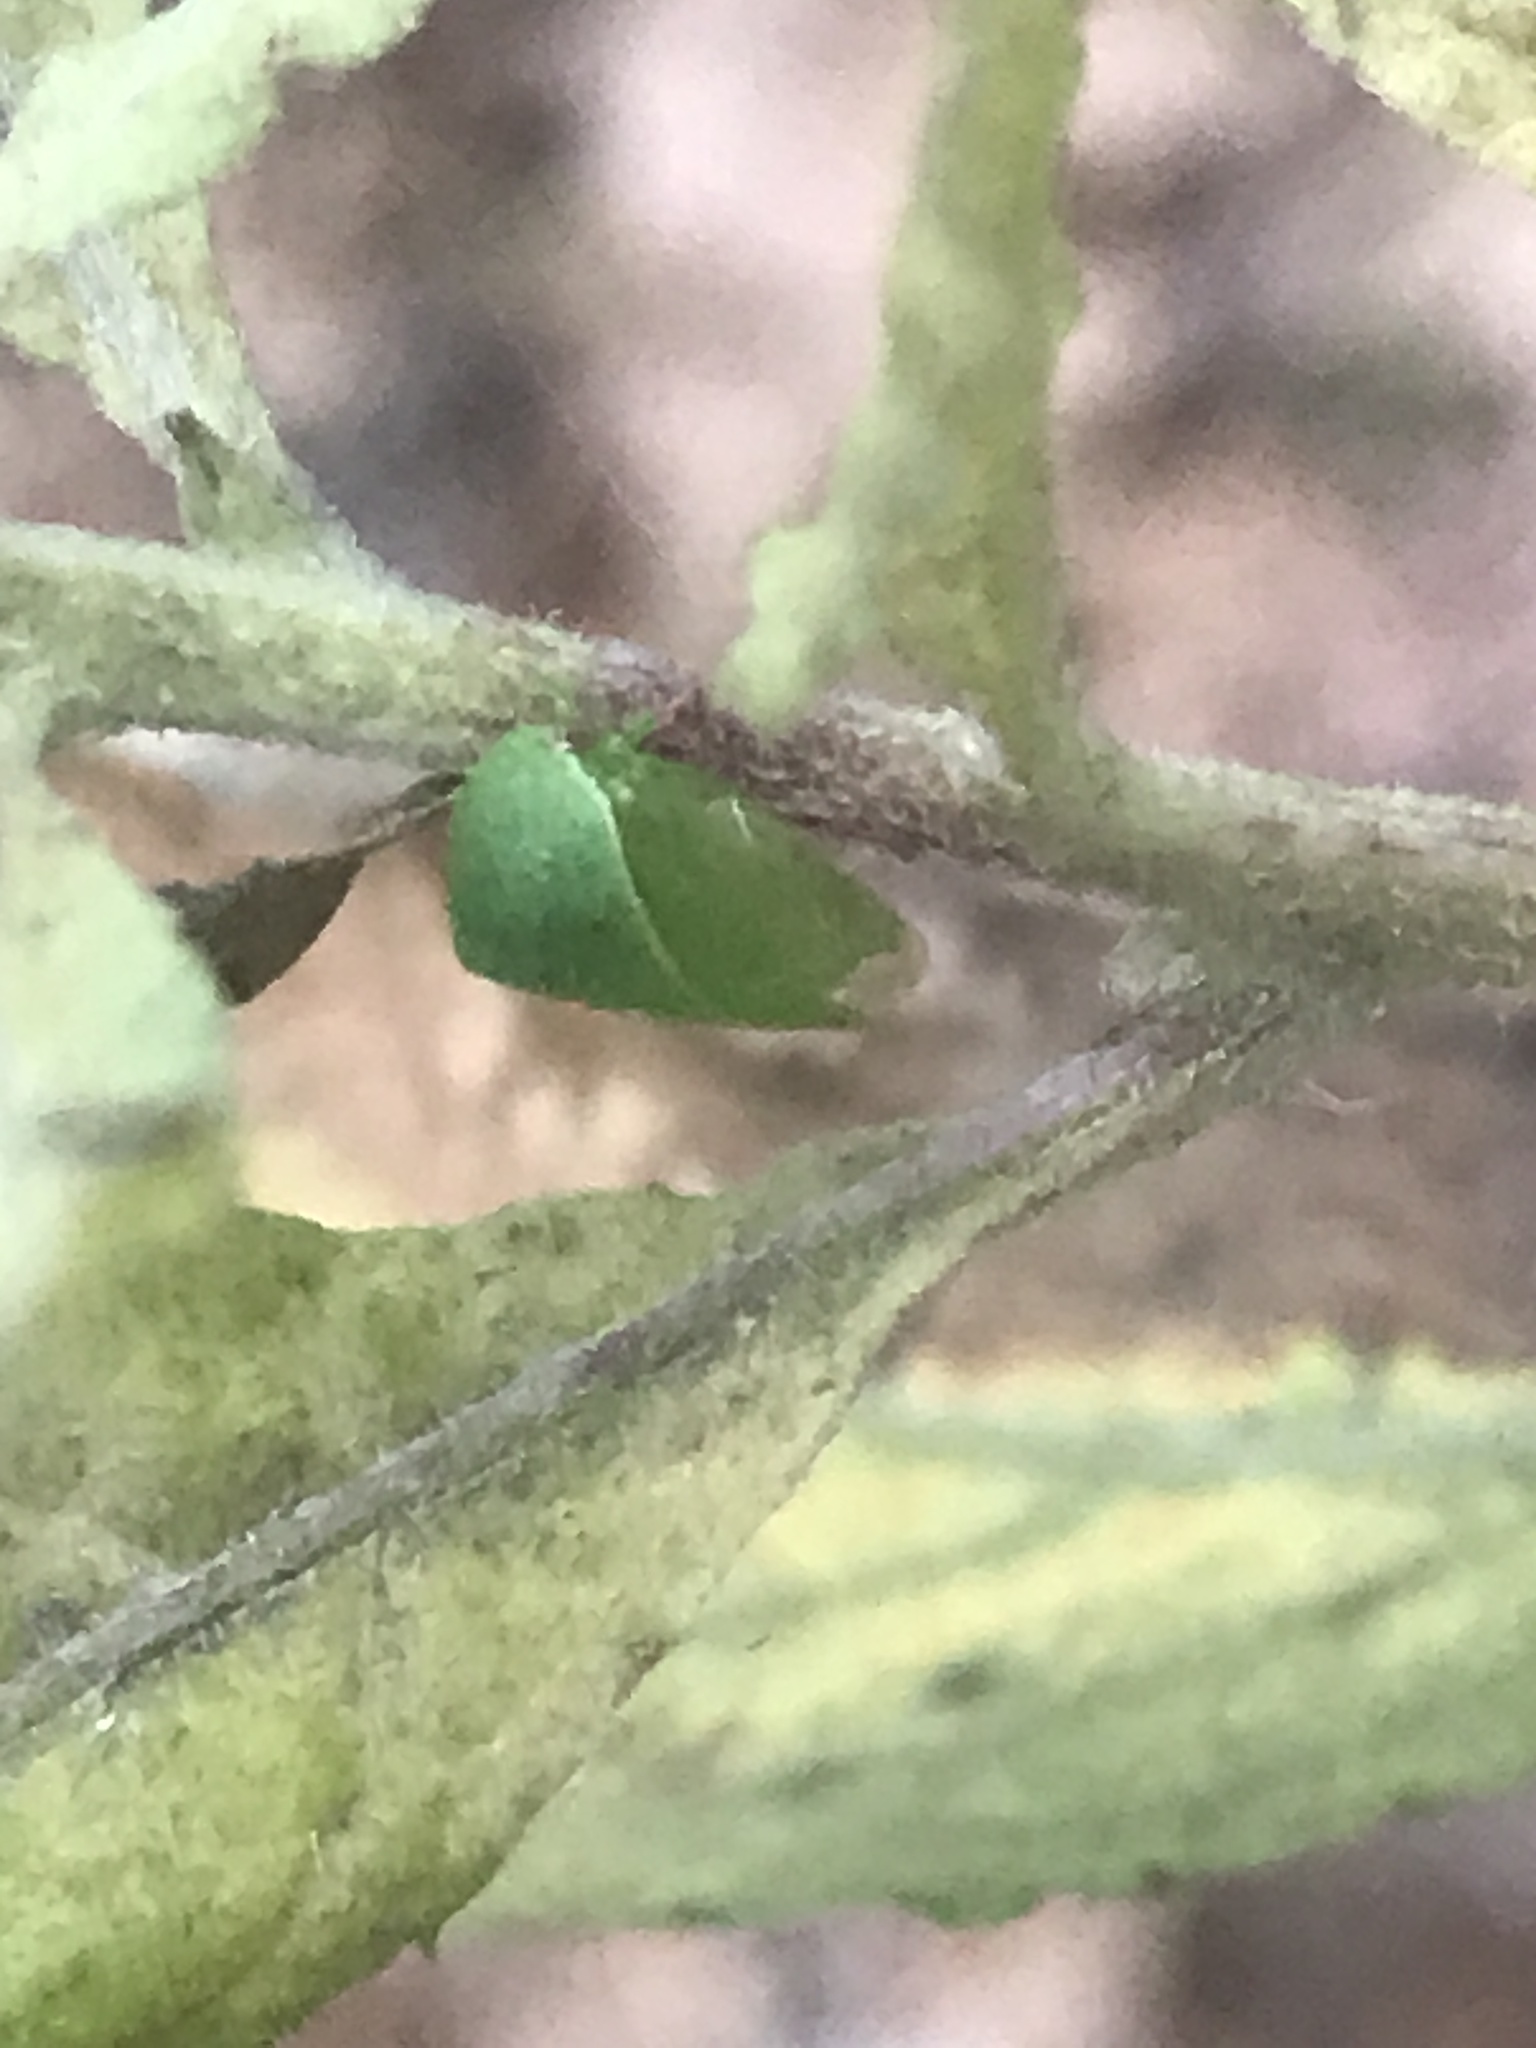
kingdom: Animalia
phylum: Arthropoda
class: Insecta
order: Hemiptera
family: Membracidae
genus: Spissistilus
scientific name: Spissistilus festina
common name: Membracid bug
